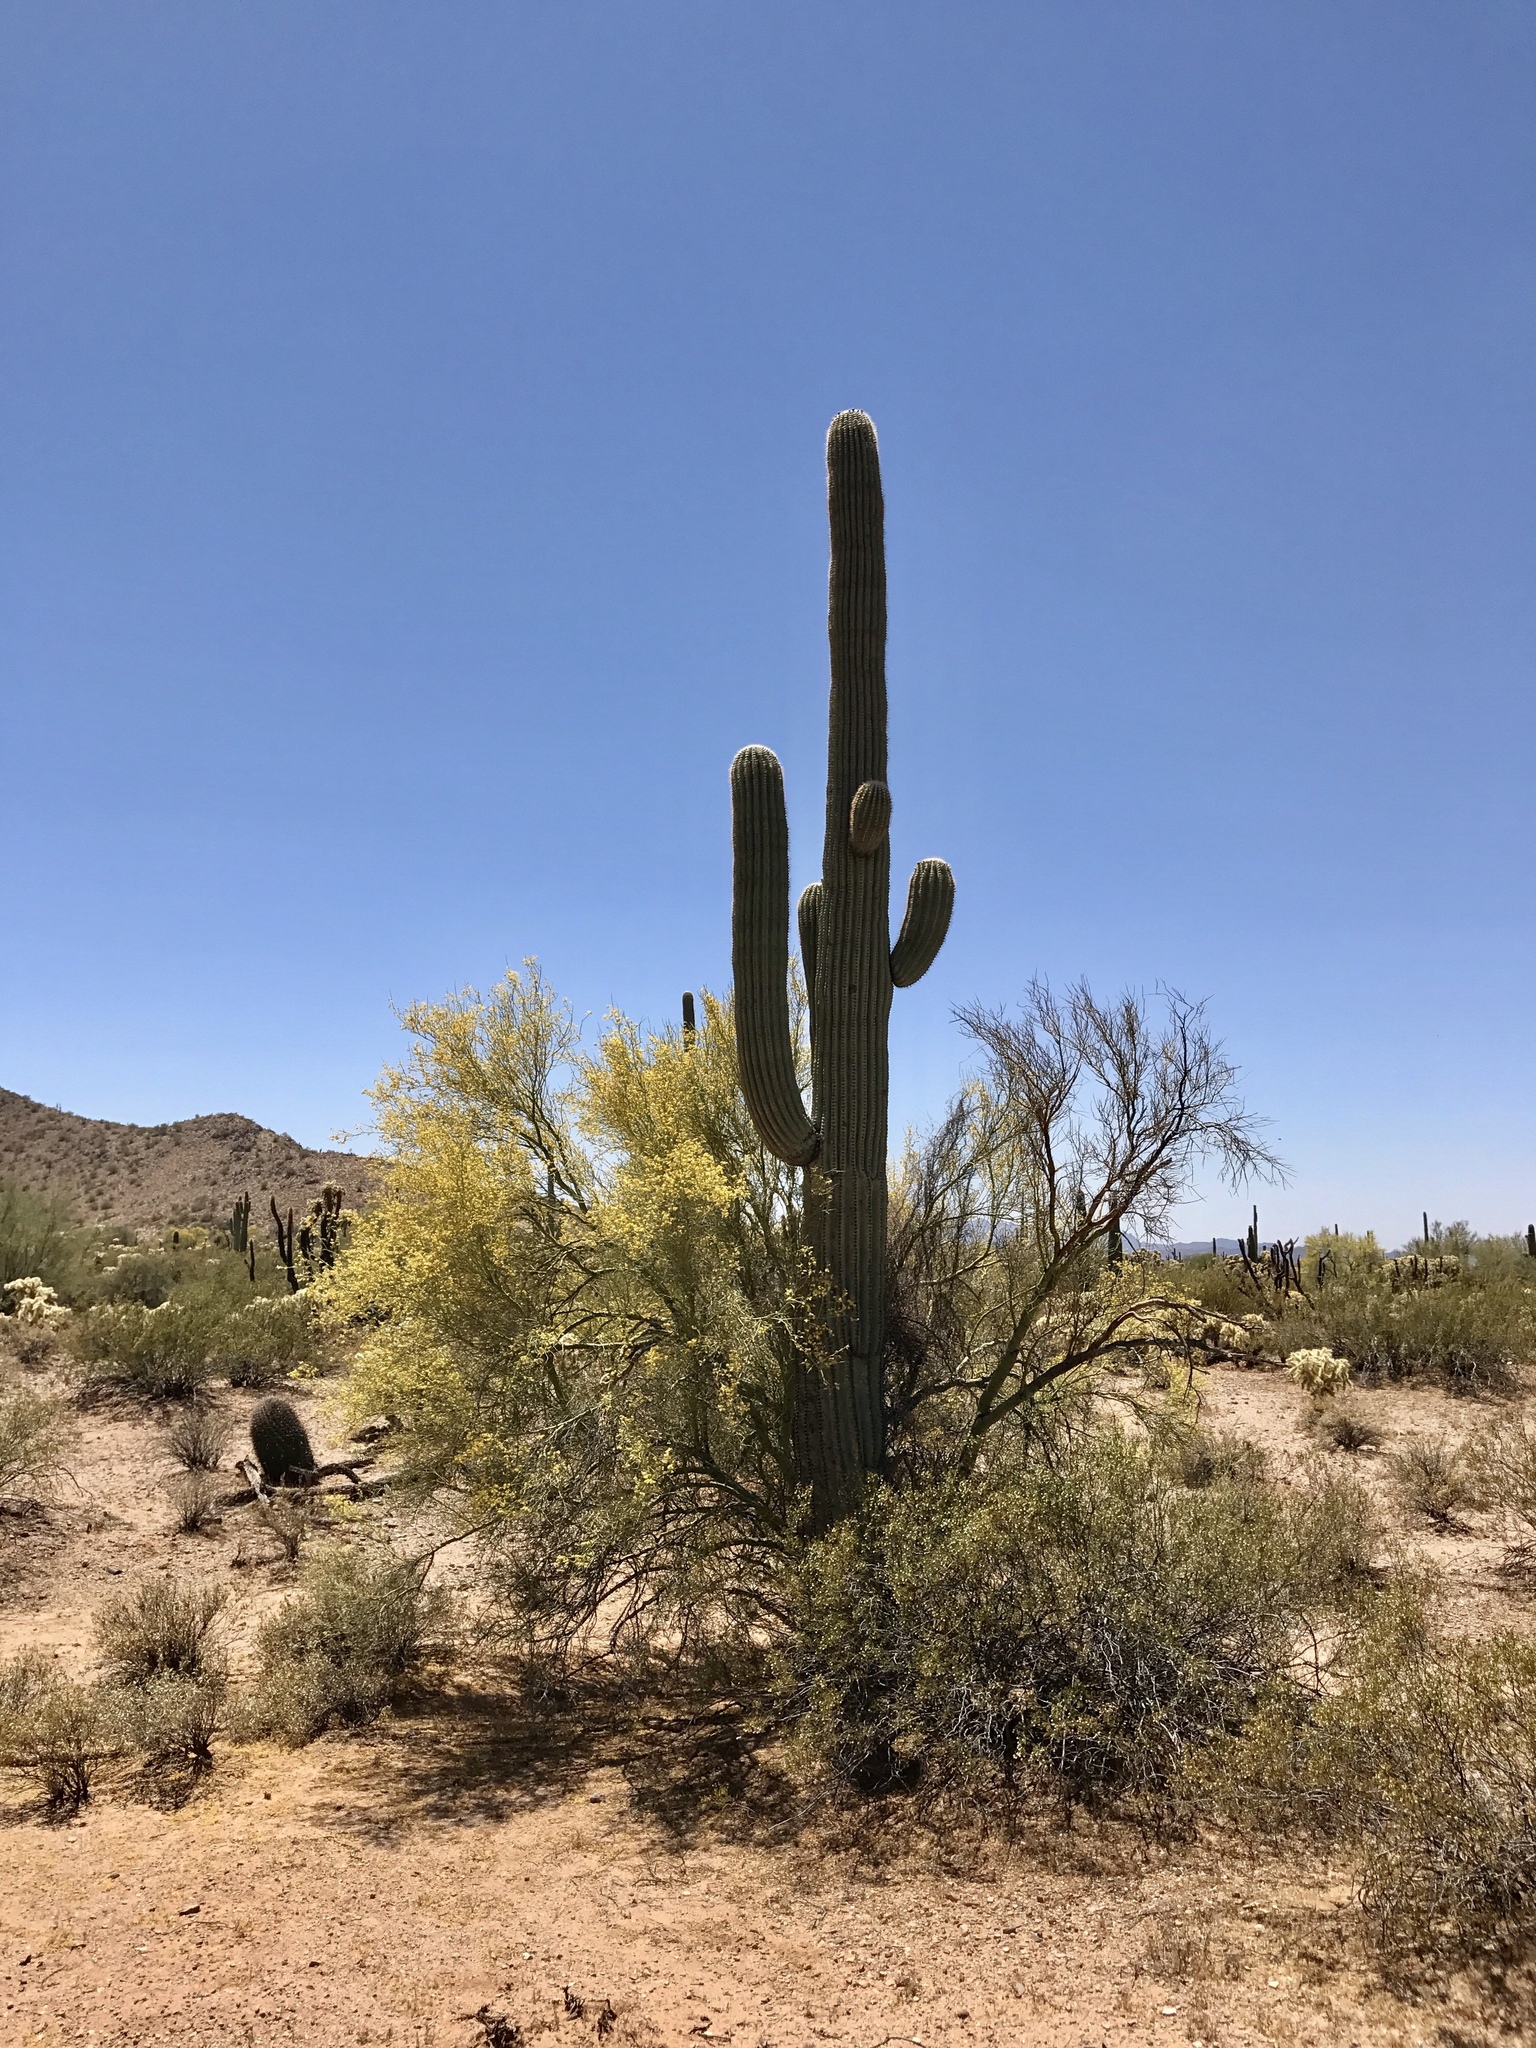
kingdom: Plantae
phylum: Tracheophyta
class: Magnoliopsida
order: Caryophyllales
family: Cactaceae
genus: Carnegiea
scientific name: Carnegiea gigantea
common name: Saguaro
